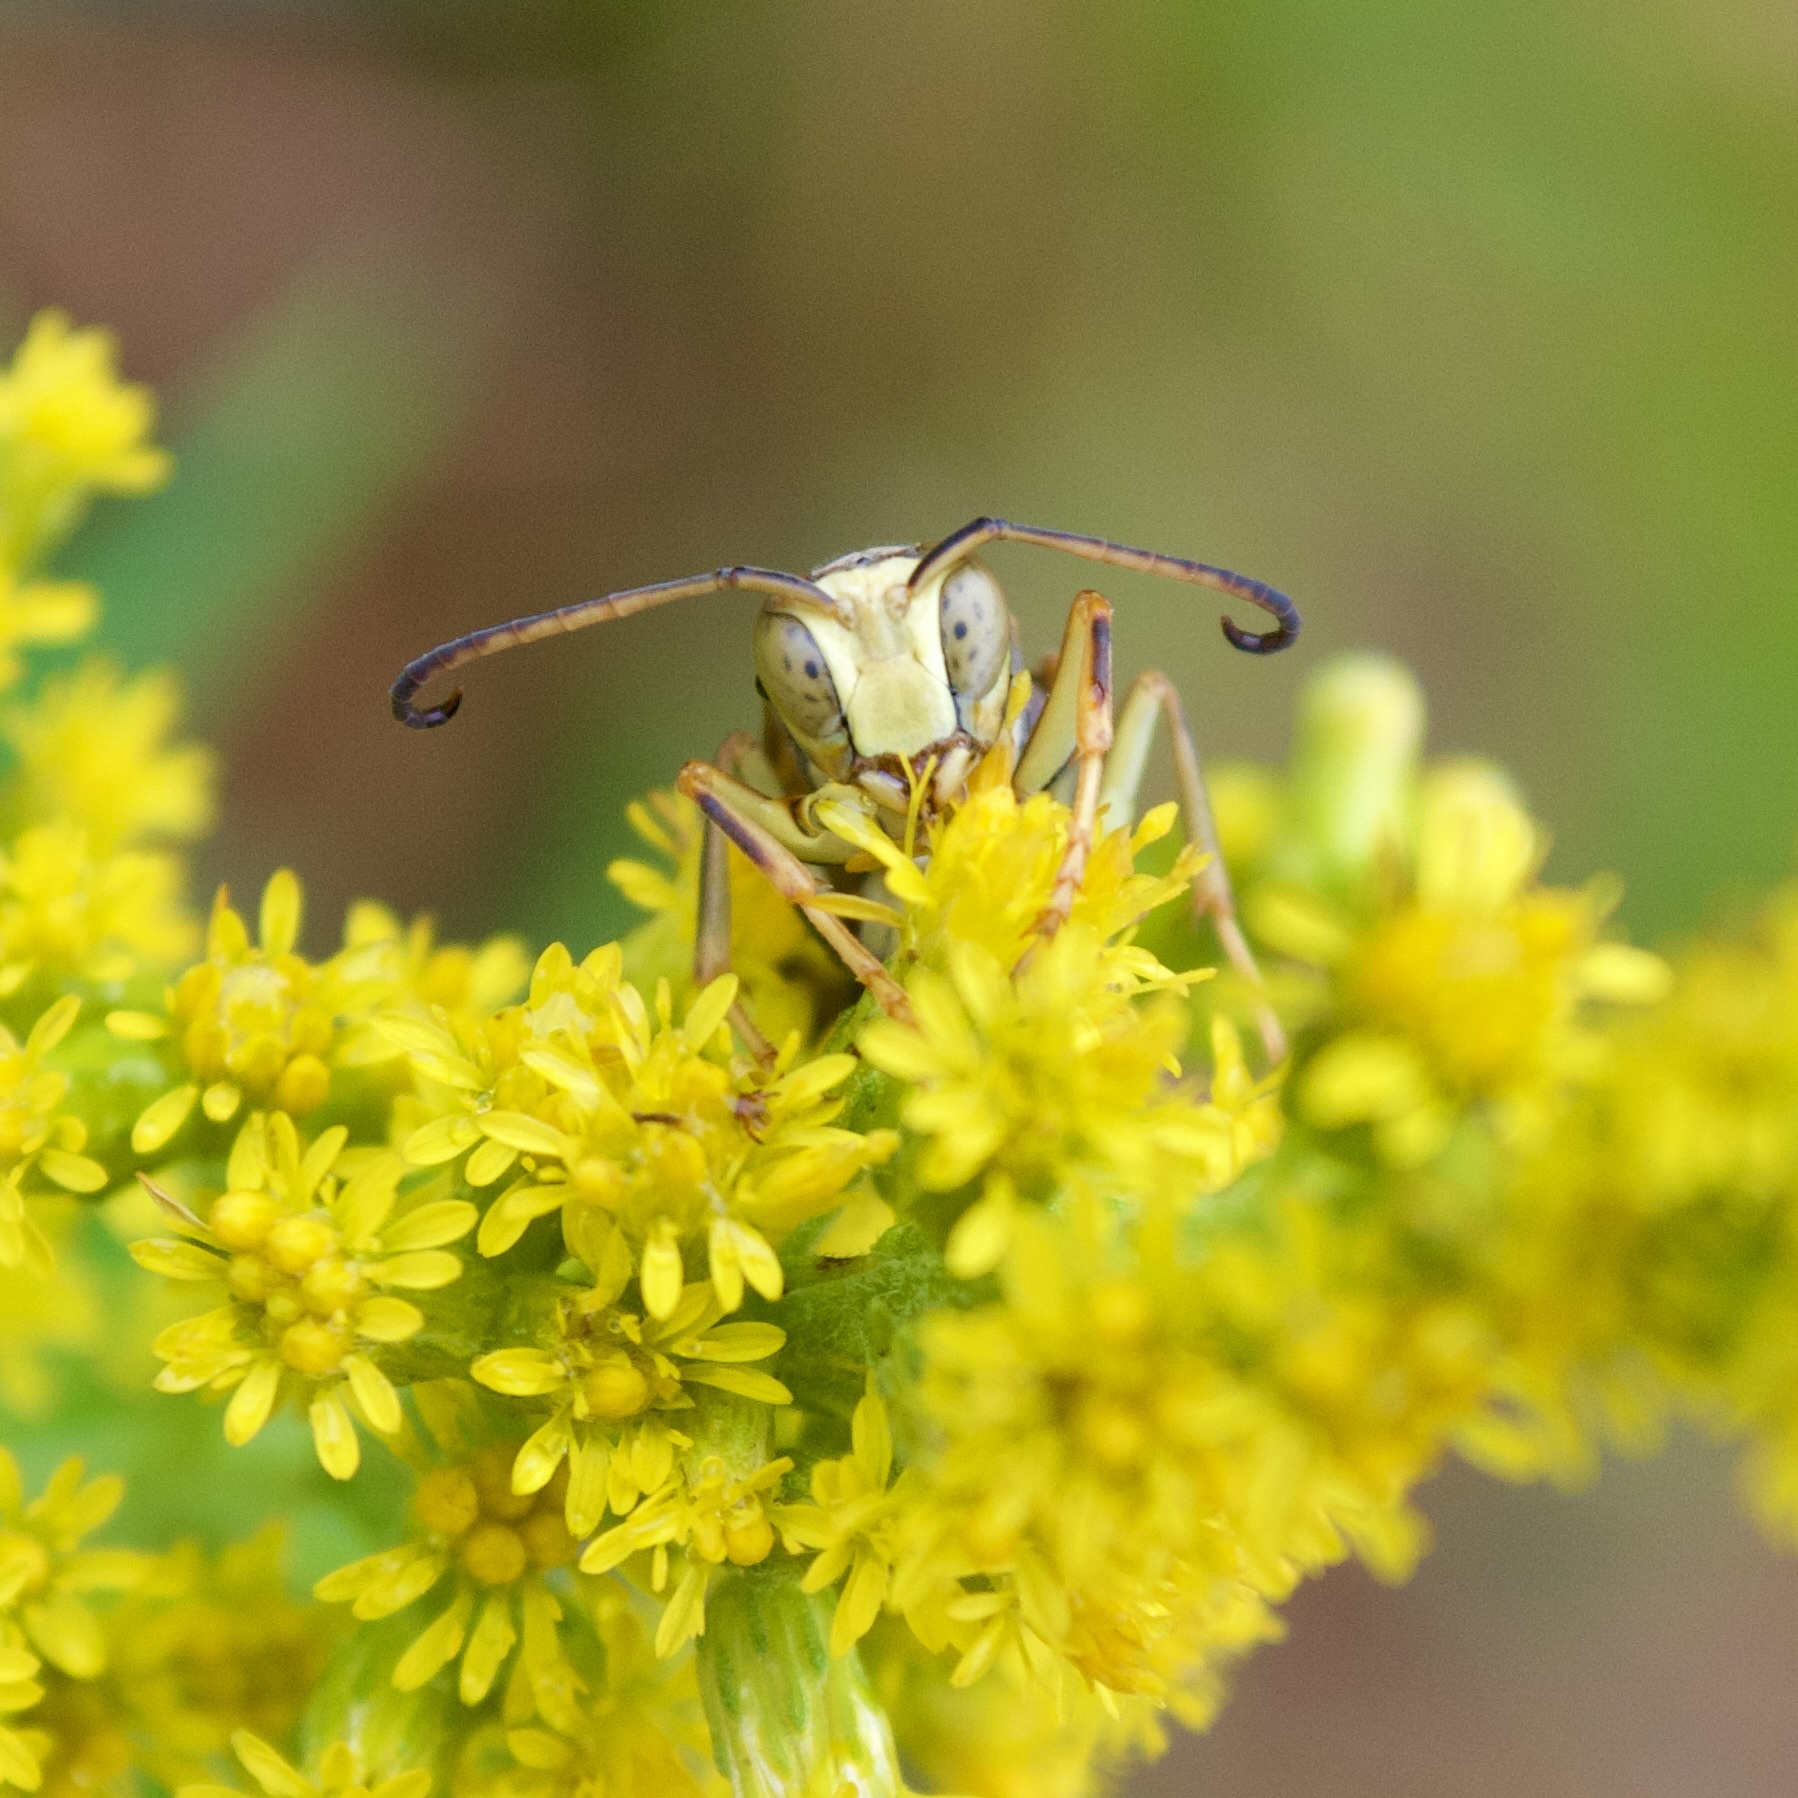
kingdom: Animalia
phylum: Arthropoda
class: Insecta
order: Hymenoptera
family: Eumenidae
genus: Polistes
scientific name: Polistes fuscatus
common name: Dark paper wasp
